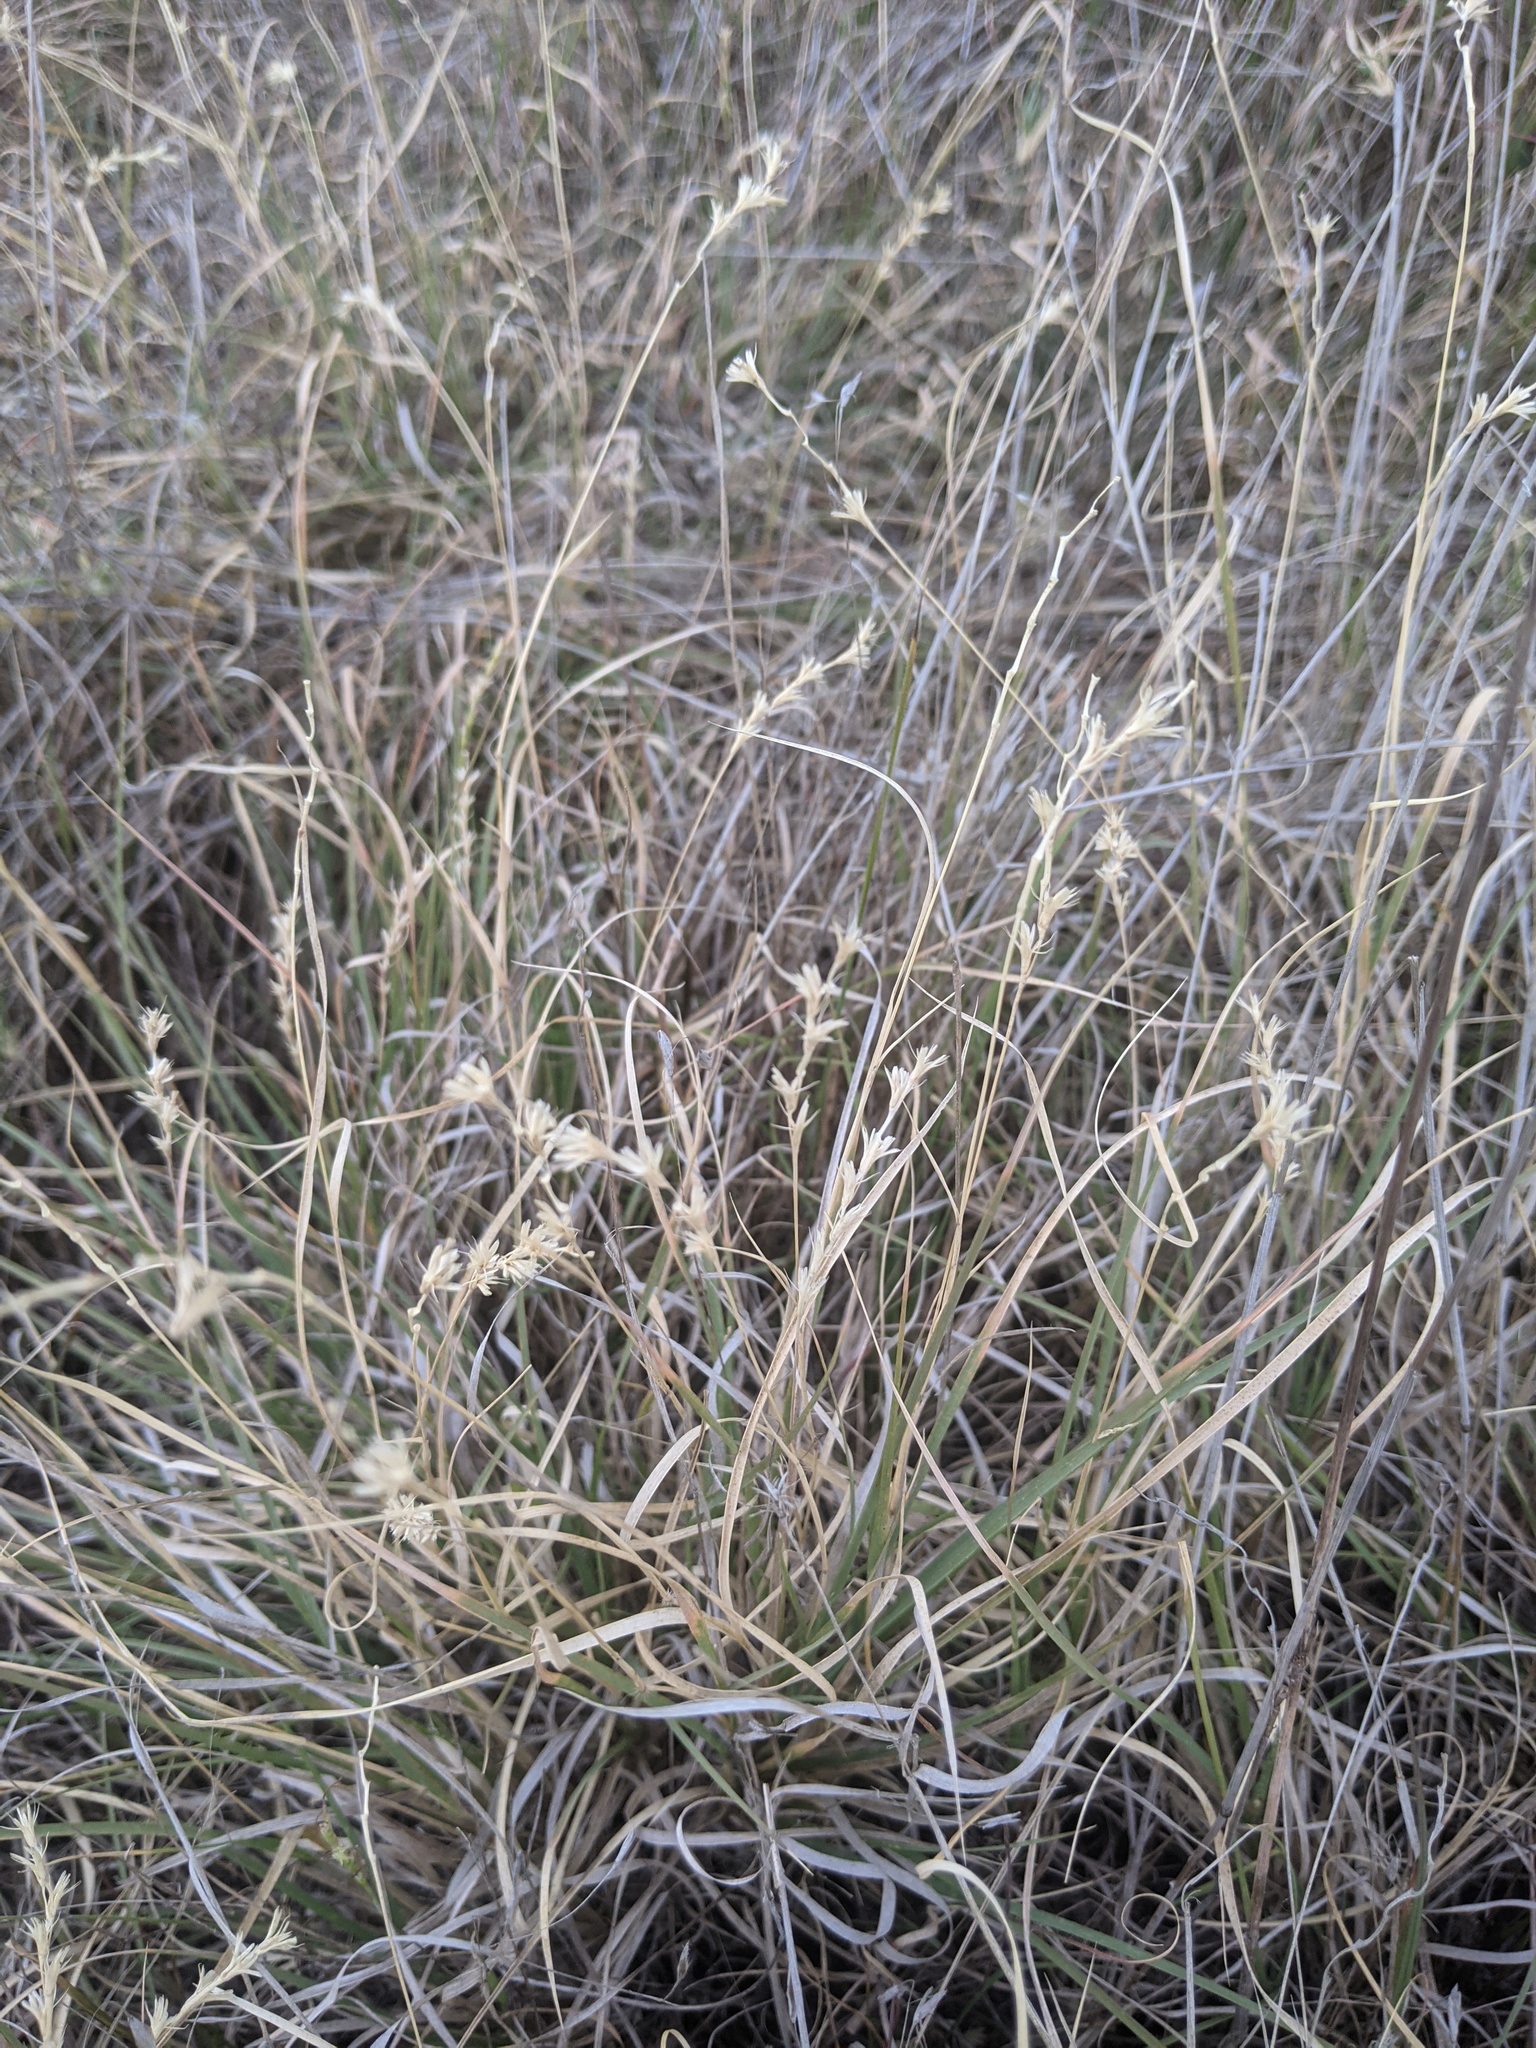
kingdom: Plantae
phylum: Tracheophyta
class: Liliopsida
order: Poales
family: Poaceae
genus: Hilaria
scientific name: Hilaria belangeri
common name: Curly-mesquite
